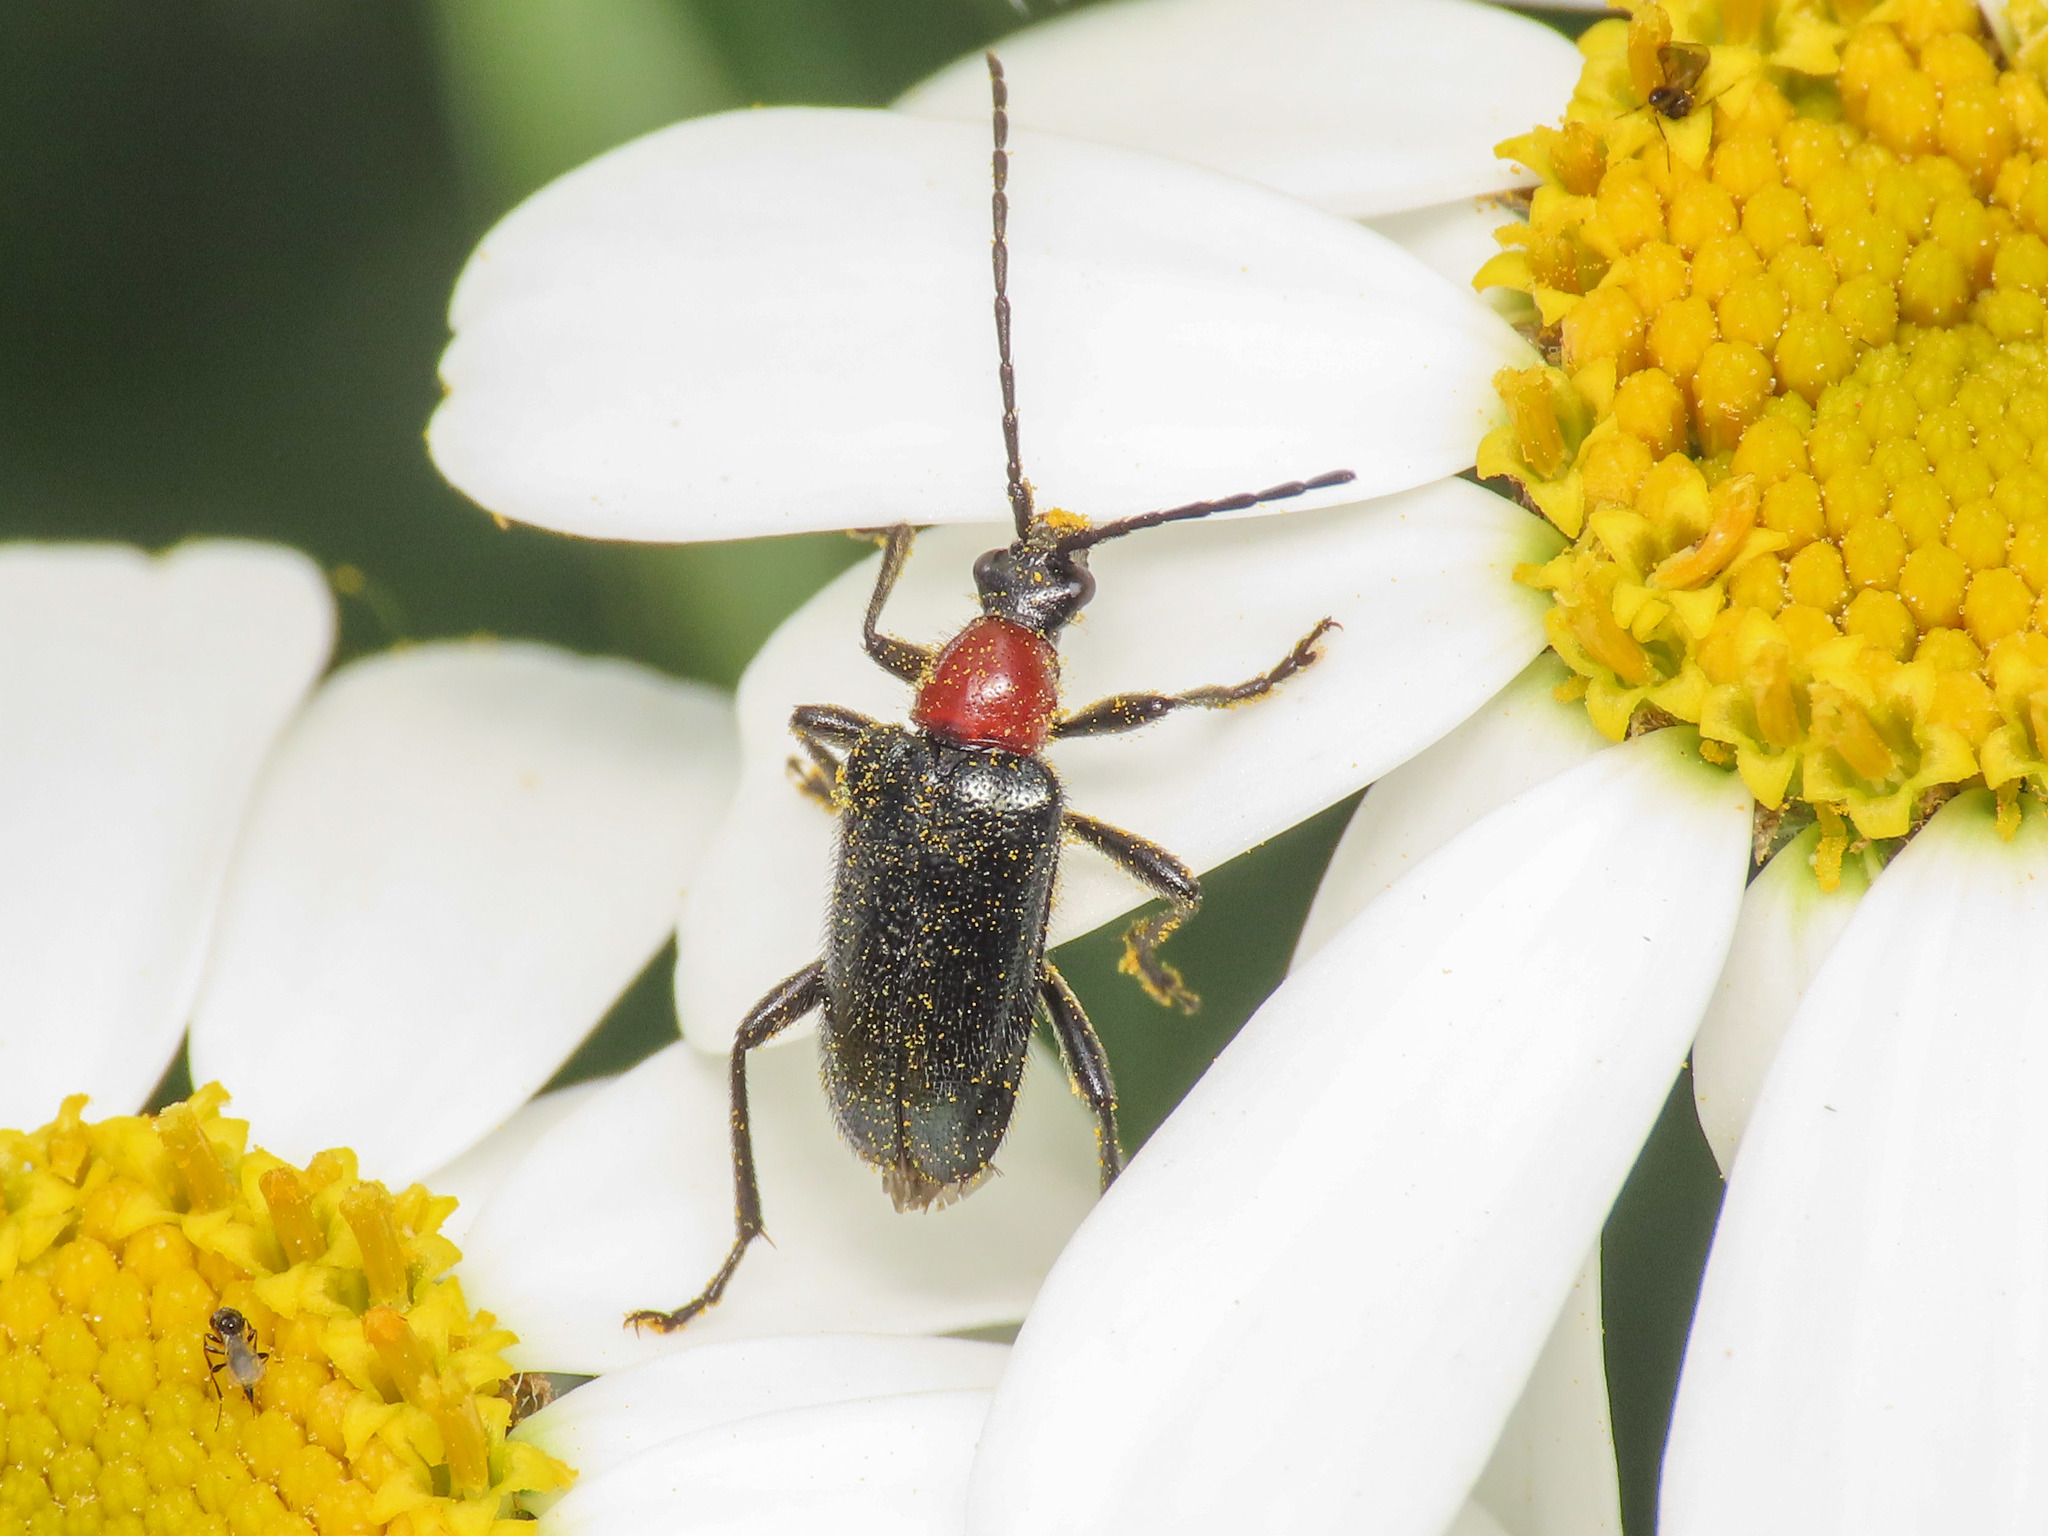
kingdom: Animalia
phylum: Arthropoda
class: Insecta
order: Coleoptera
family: Cerambycidae
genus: Dinoptera
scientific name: Dinoptera collaris
